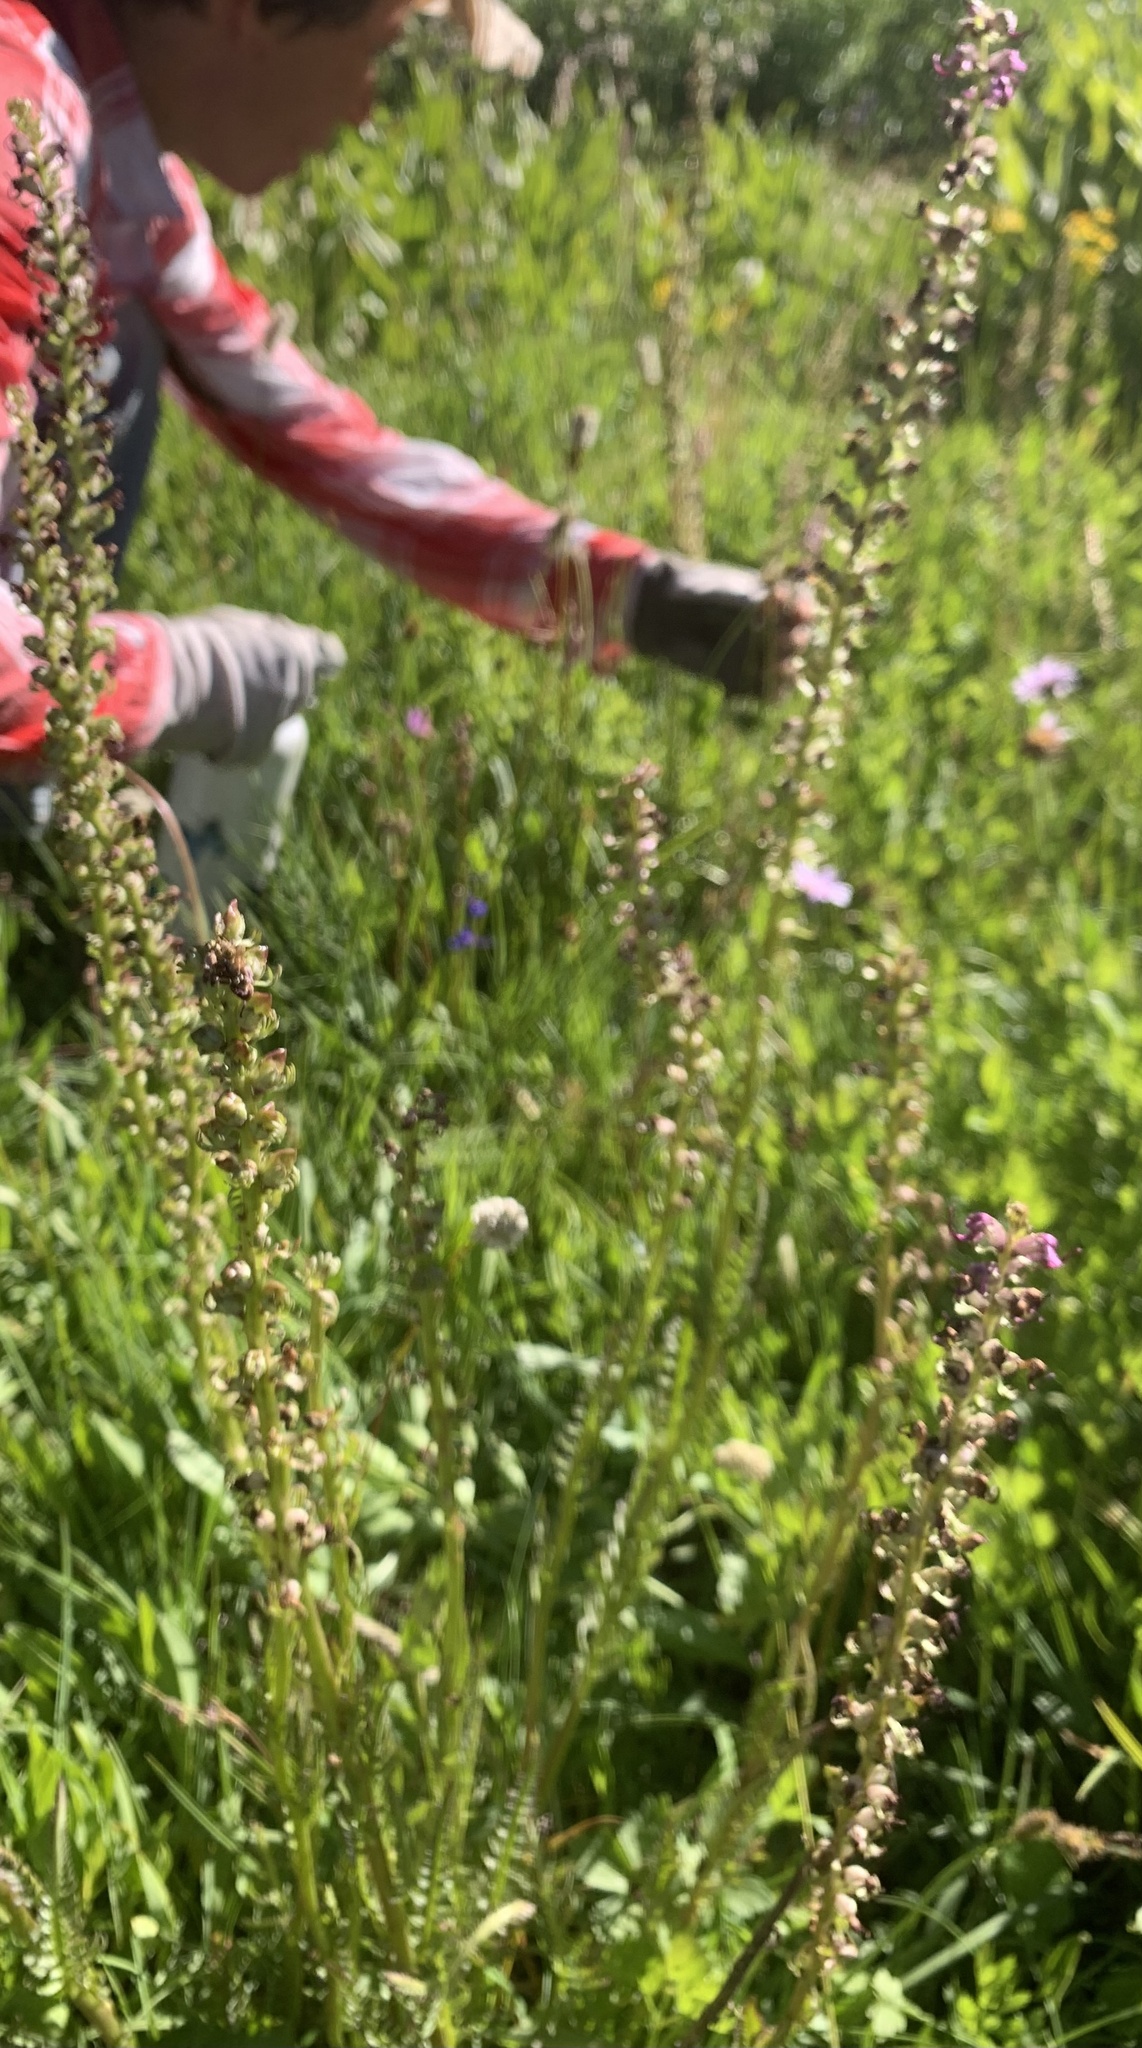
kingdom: Plantae
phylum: Tracheophyta
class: Magnoliopsida
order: Lamiales
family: Orobanchaceae
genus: Pedicularis
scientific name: Pedicularis groenlandica
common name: Elephant's-head
